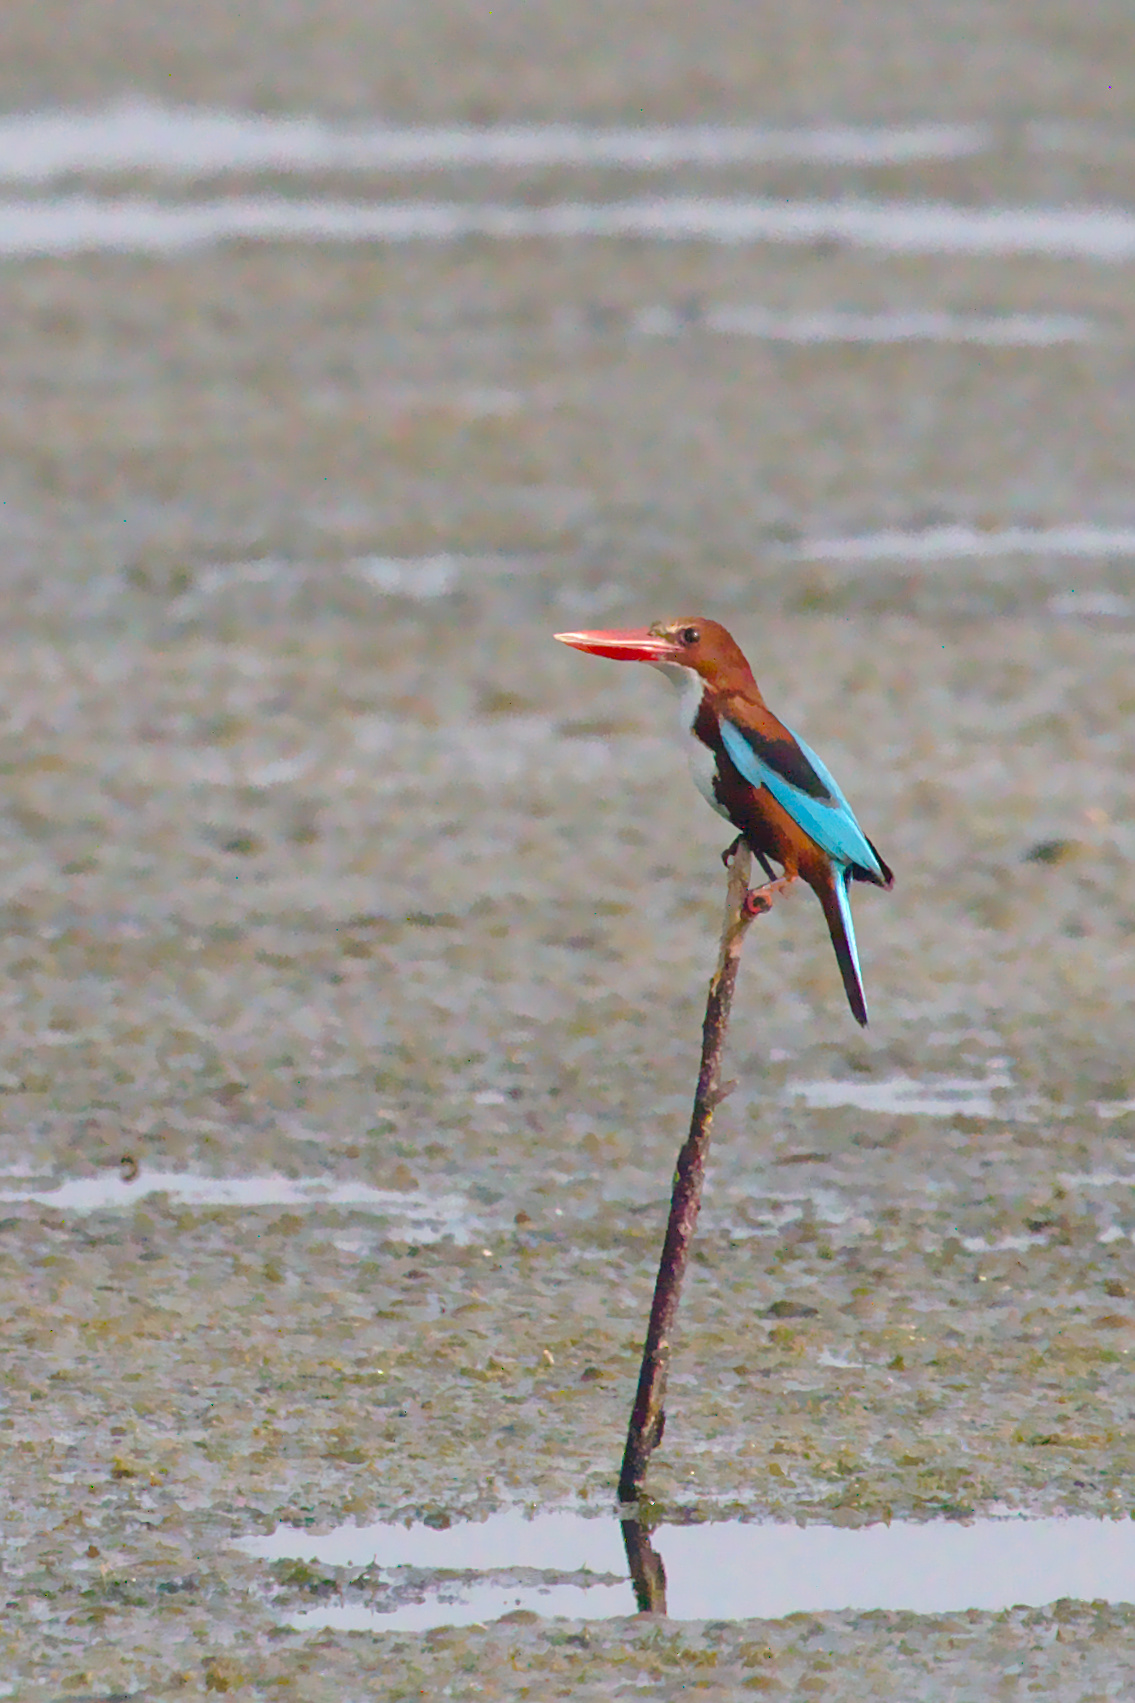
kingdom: Animalia
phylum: Chordata
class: Aves
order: Coraciiformes
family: Alcedinidae
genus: Halcyon
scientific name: Halcyon smyrnensis
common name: White-throated kingfisher
